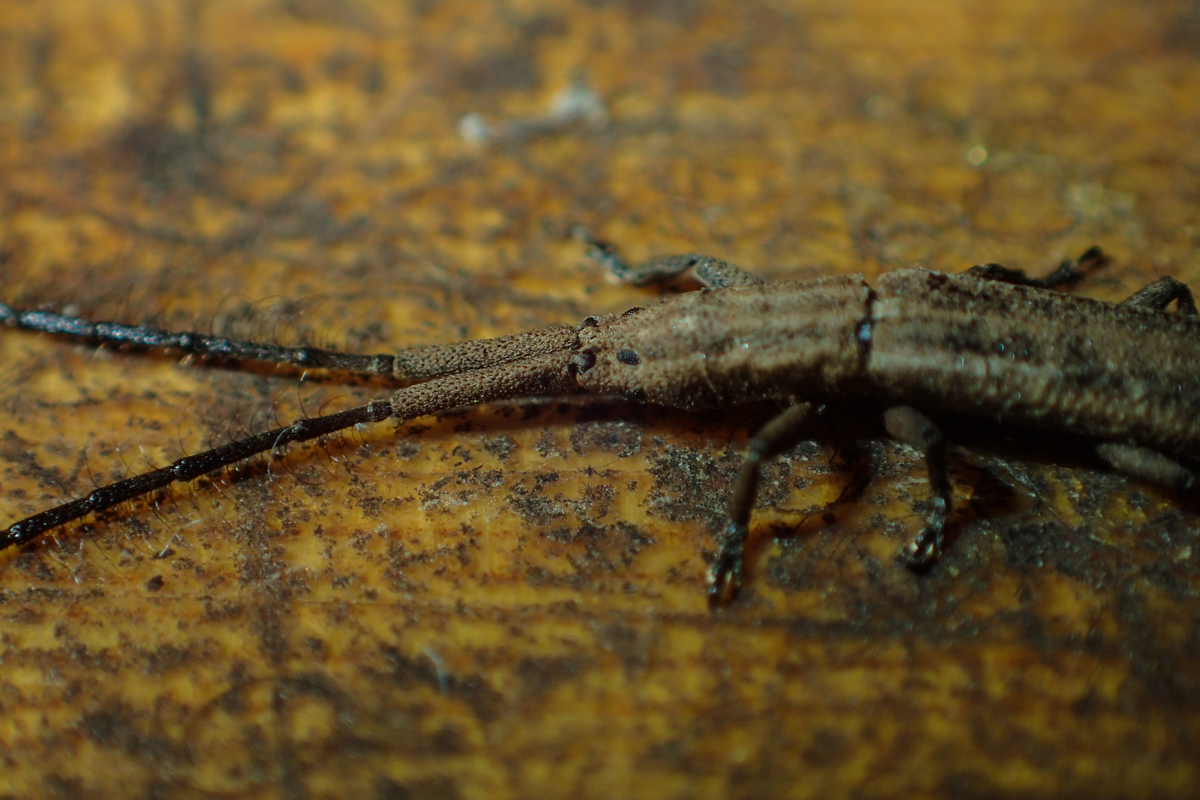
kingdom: Animalia
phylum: Arthropoda
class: Insecta
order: Coleoptera
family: Cerambycidae
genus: Tetraglenes
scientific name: Tetraglenes hirticornis
